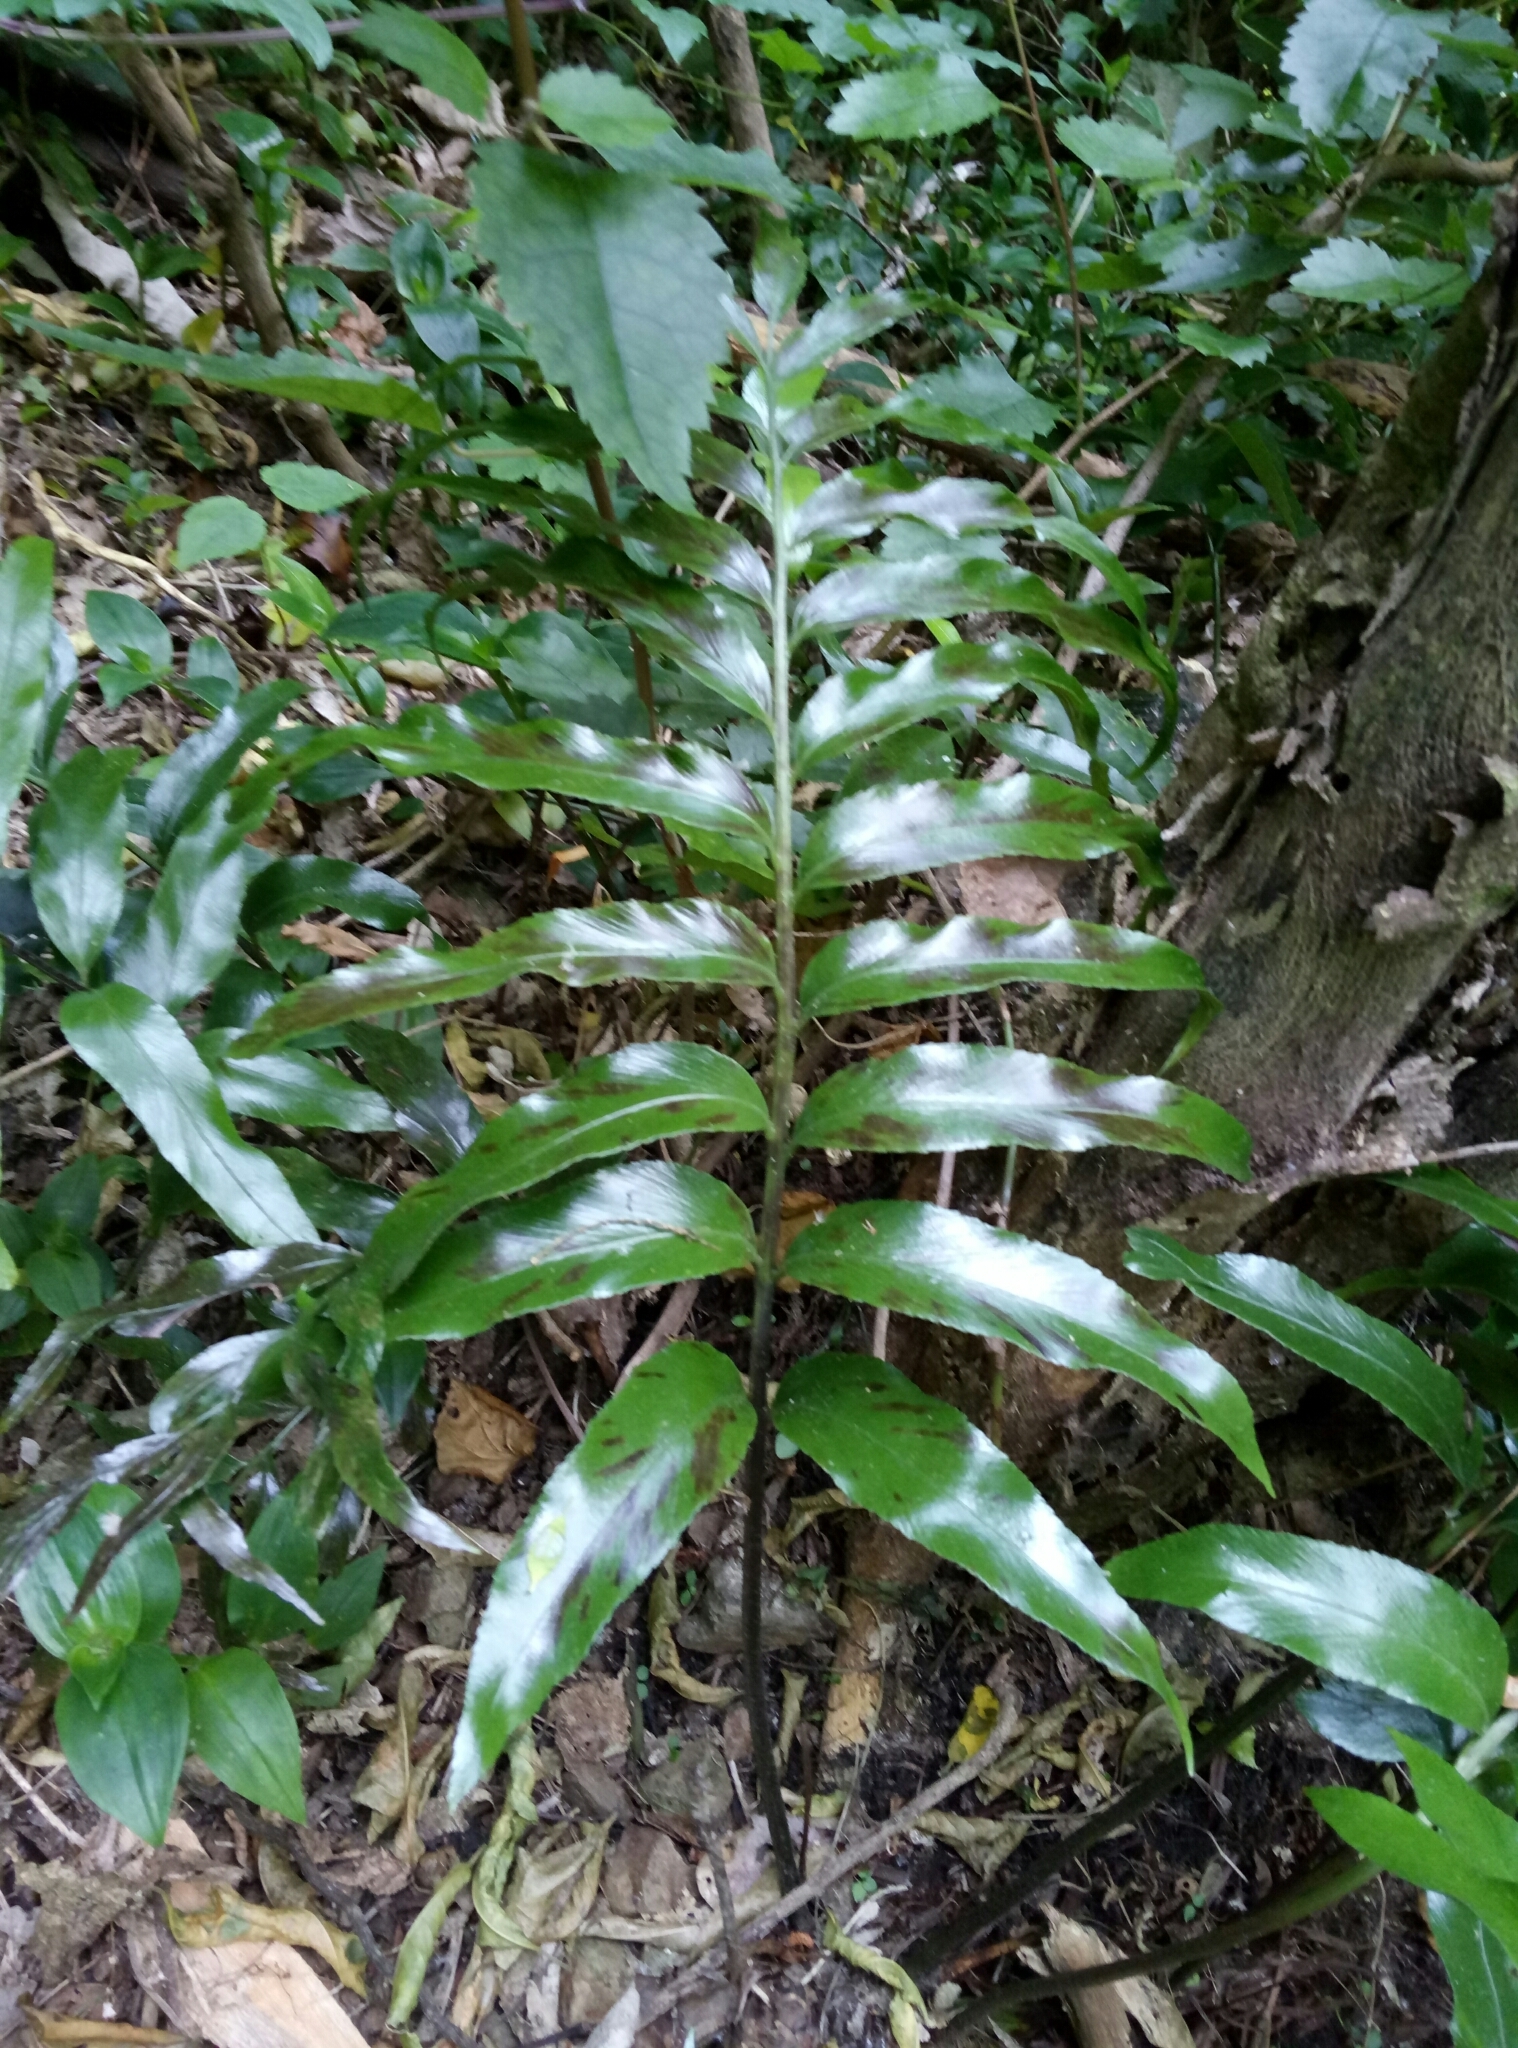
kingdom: Plantae
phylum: Tracheophyta
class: Polypodiopsida
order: Polypodiales
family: Aspleniaceae
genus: Asplenium
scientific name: Asplenium oblongifolium
